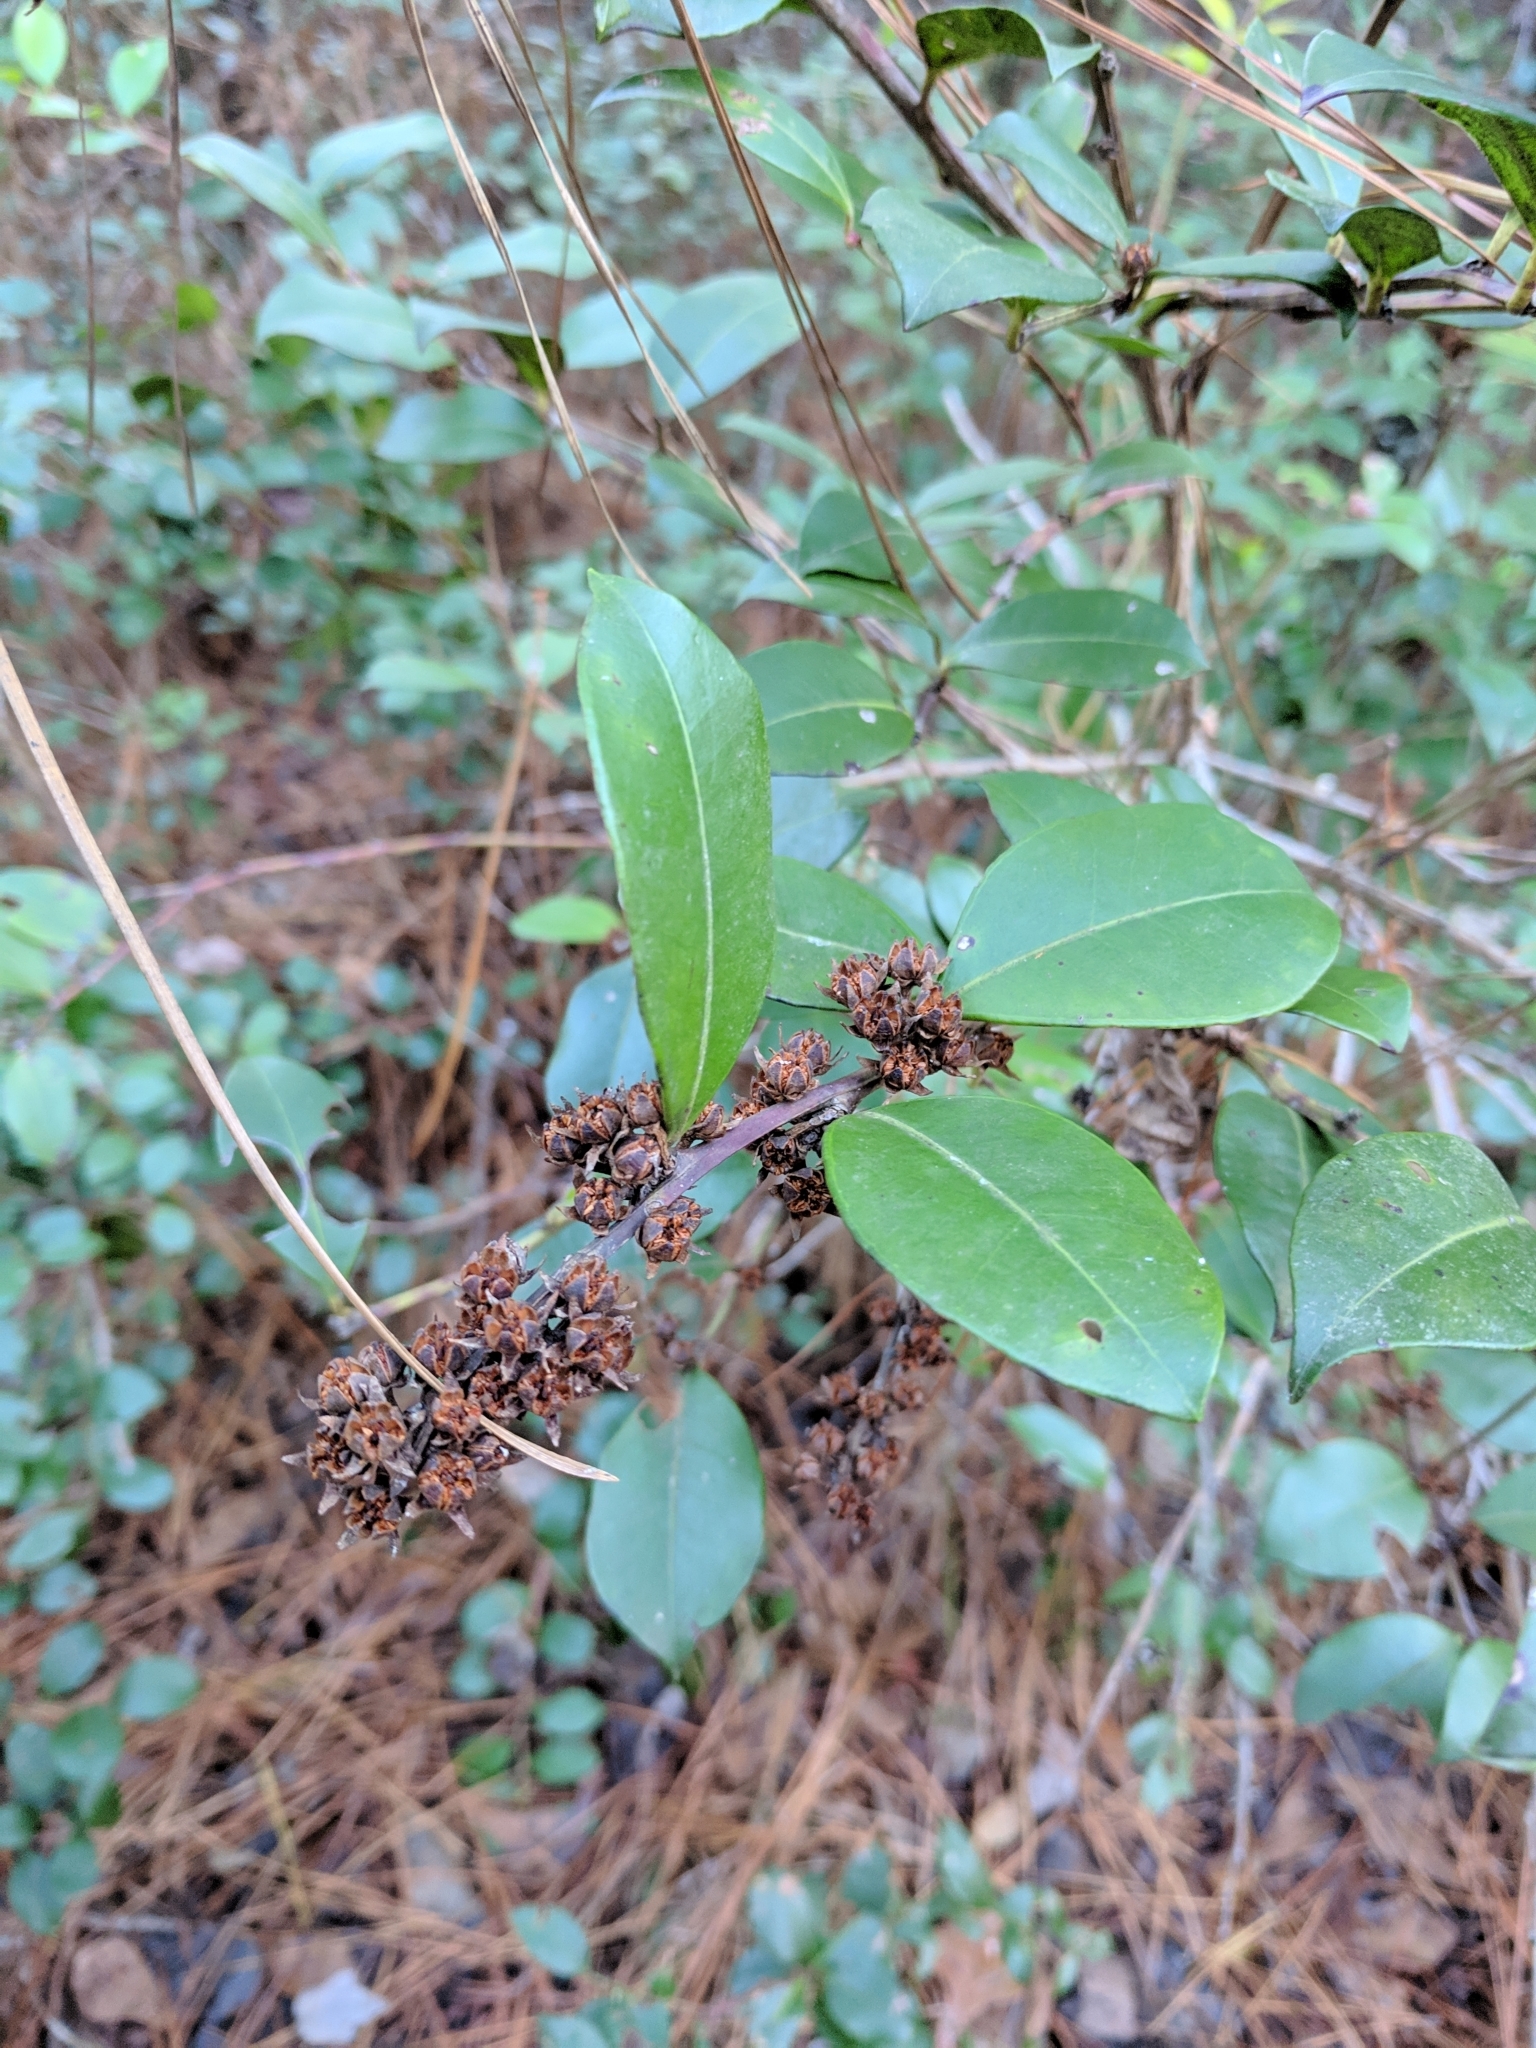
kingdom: Plantae
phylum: Tracheophyta
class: Magnoliopsida
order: Ericales
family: Ericaceae
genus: Lyonia
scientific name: Lyonia lucida
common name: Fetterbush
